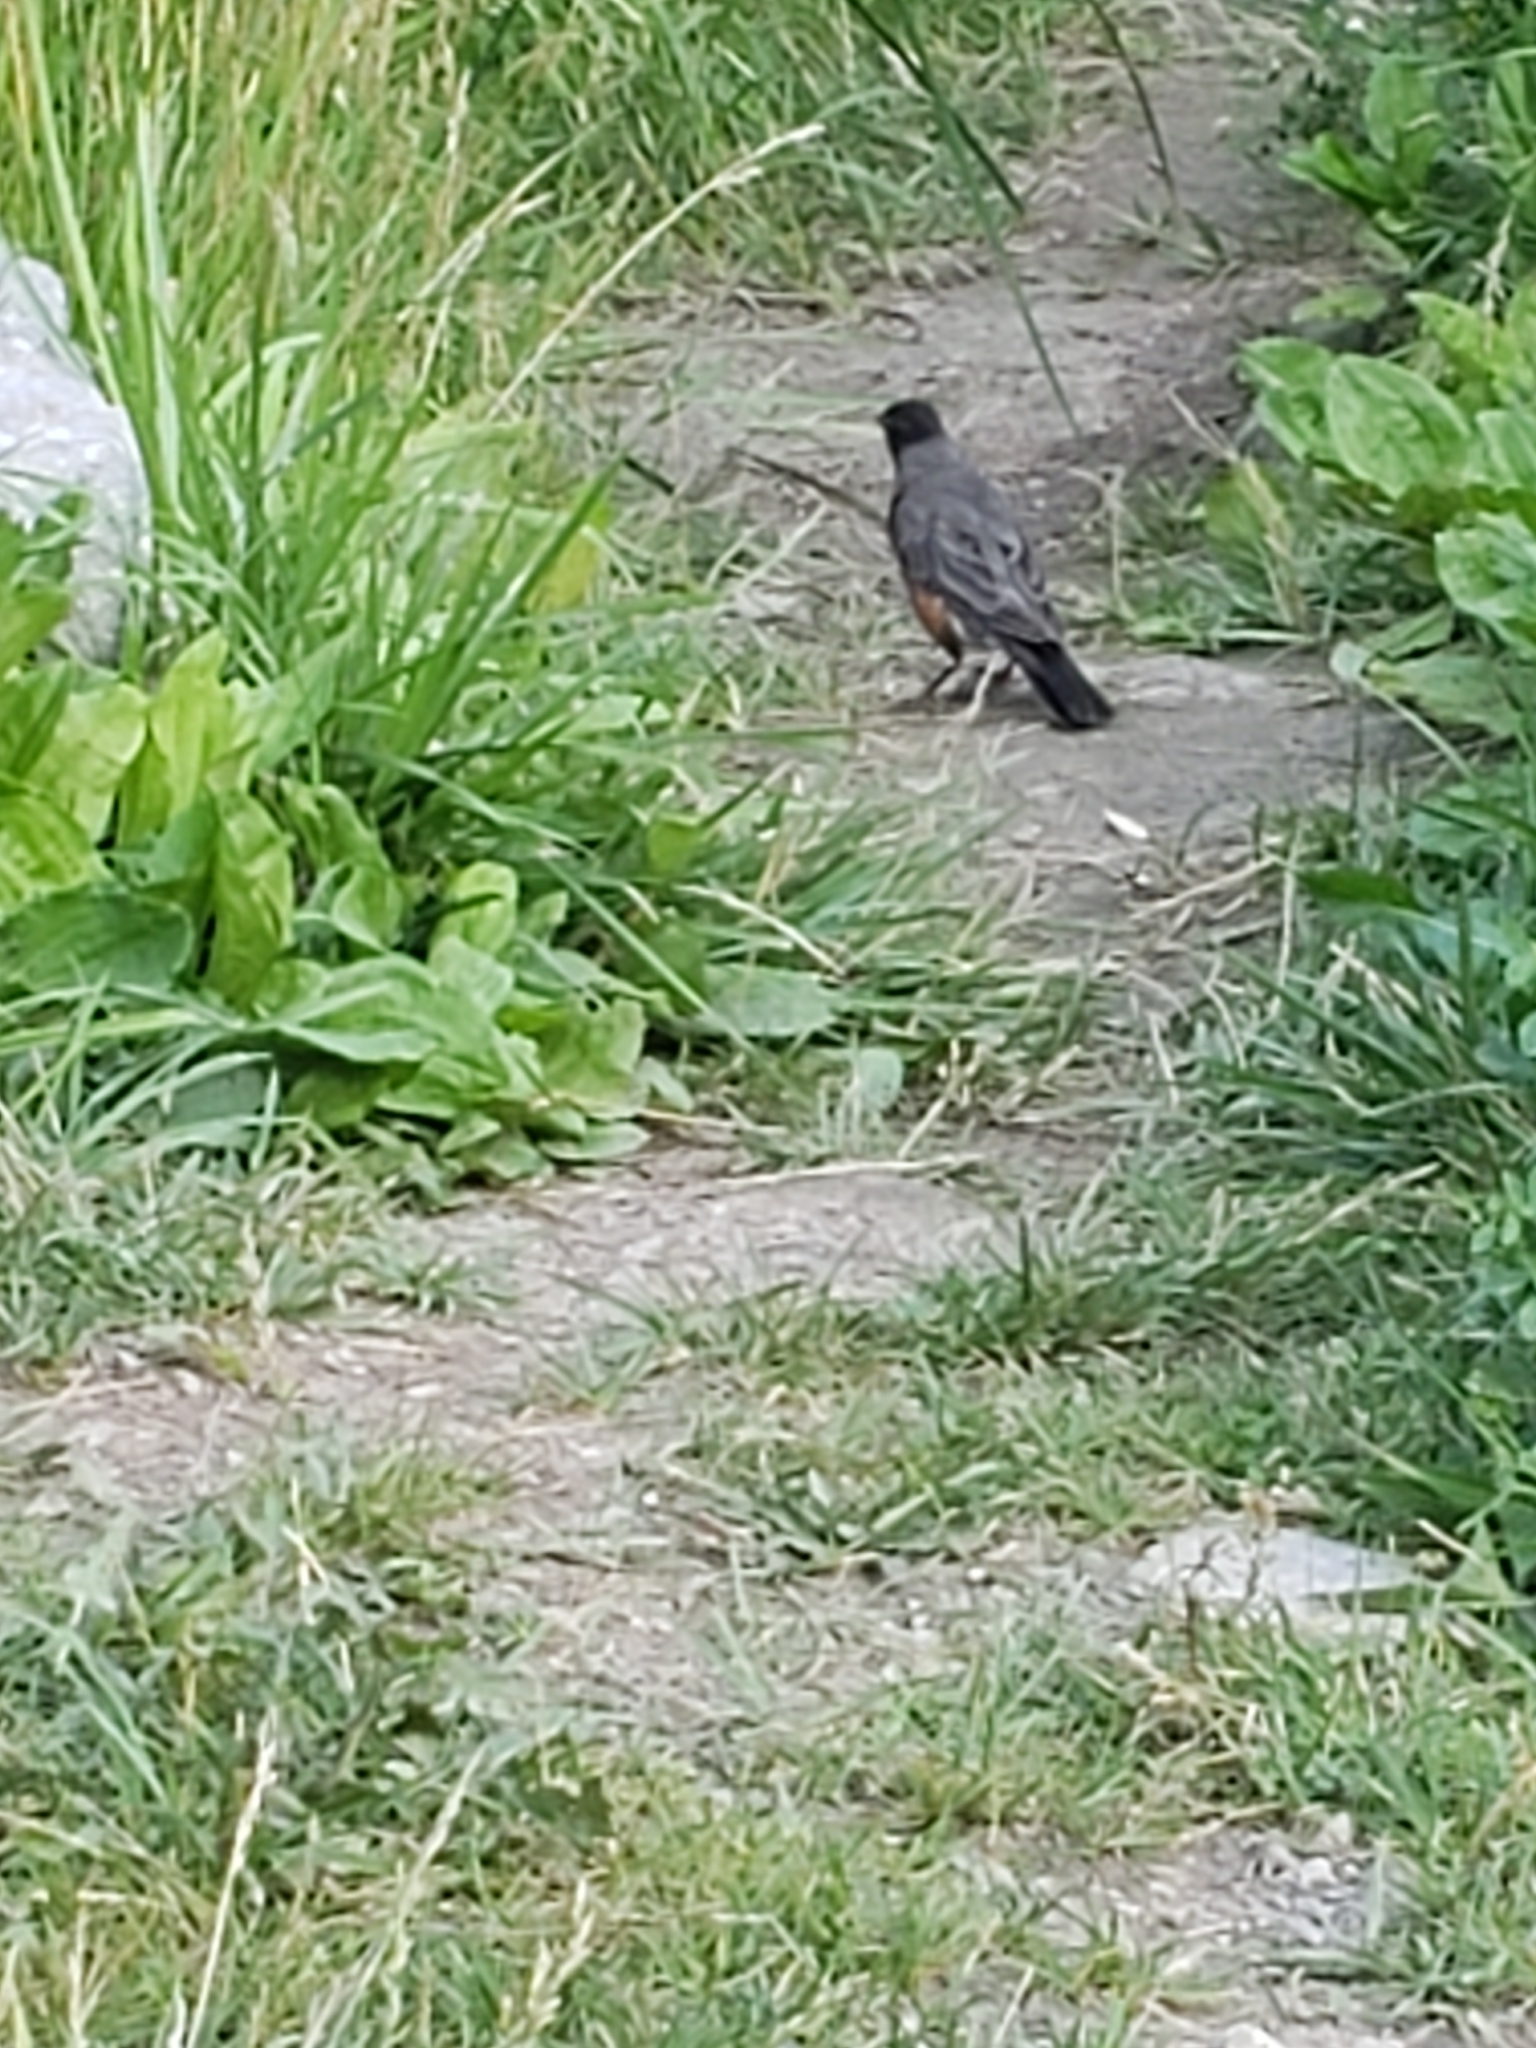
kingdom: Animalia
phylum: Chordata
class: Aves
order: Passeriformes
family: Turdidae
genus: Turdus
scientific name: Turdus migratorius
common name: American robin
